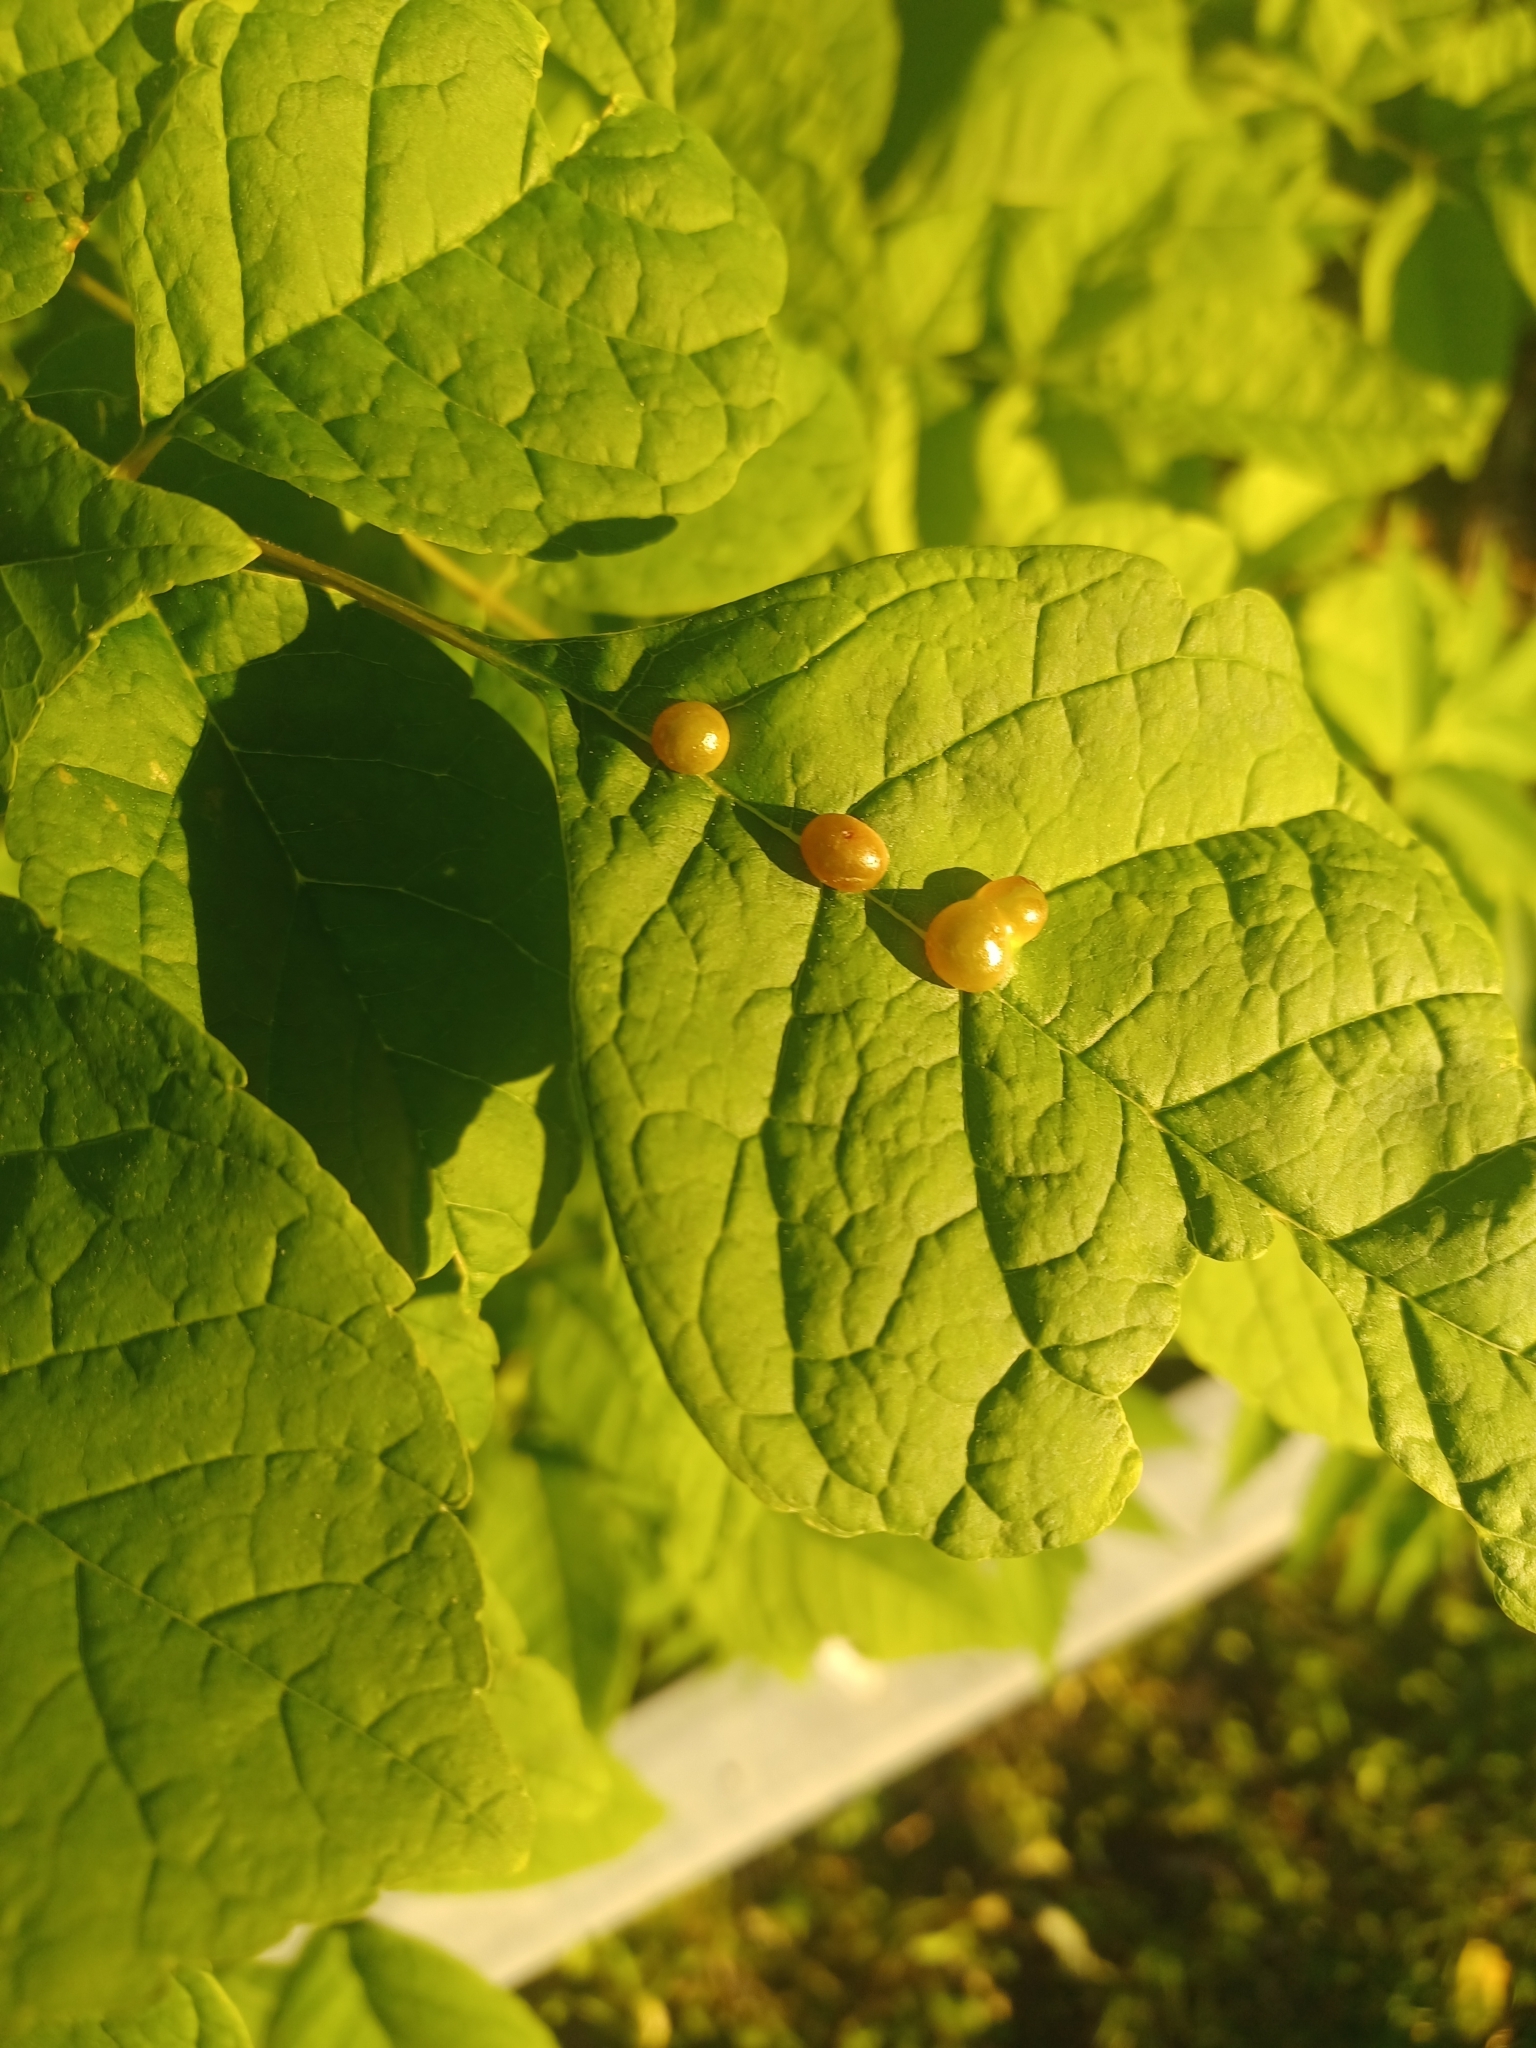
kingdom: Animalia
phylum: Arthropoda
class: Insecta
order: Diptera
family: Cecidomyiidae
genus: Dasineura
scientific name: Dasineura pellex
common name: Ash bullet gall midge
